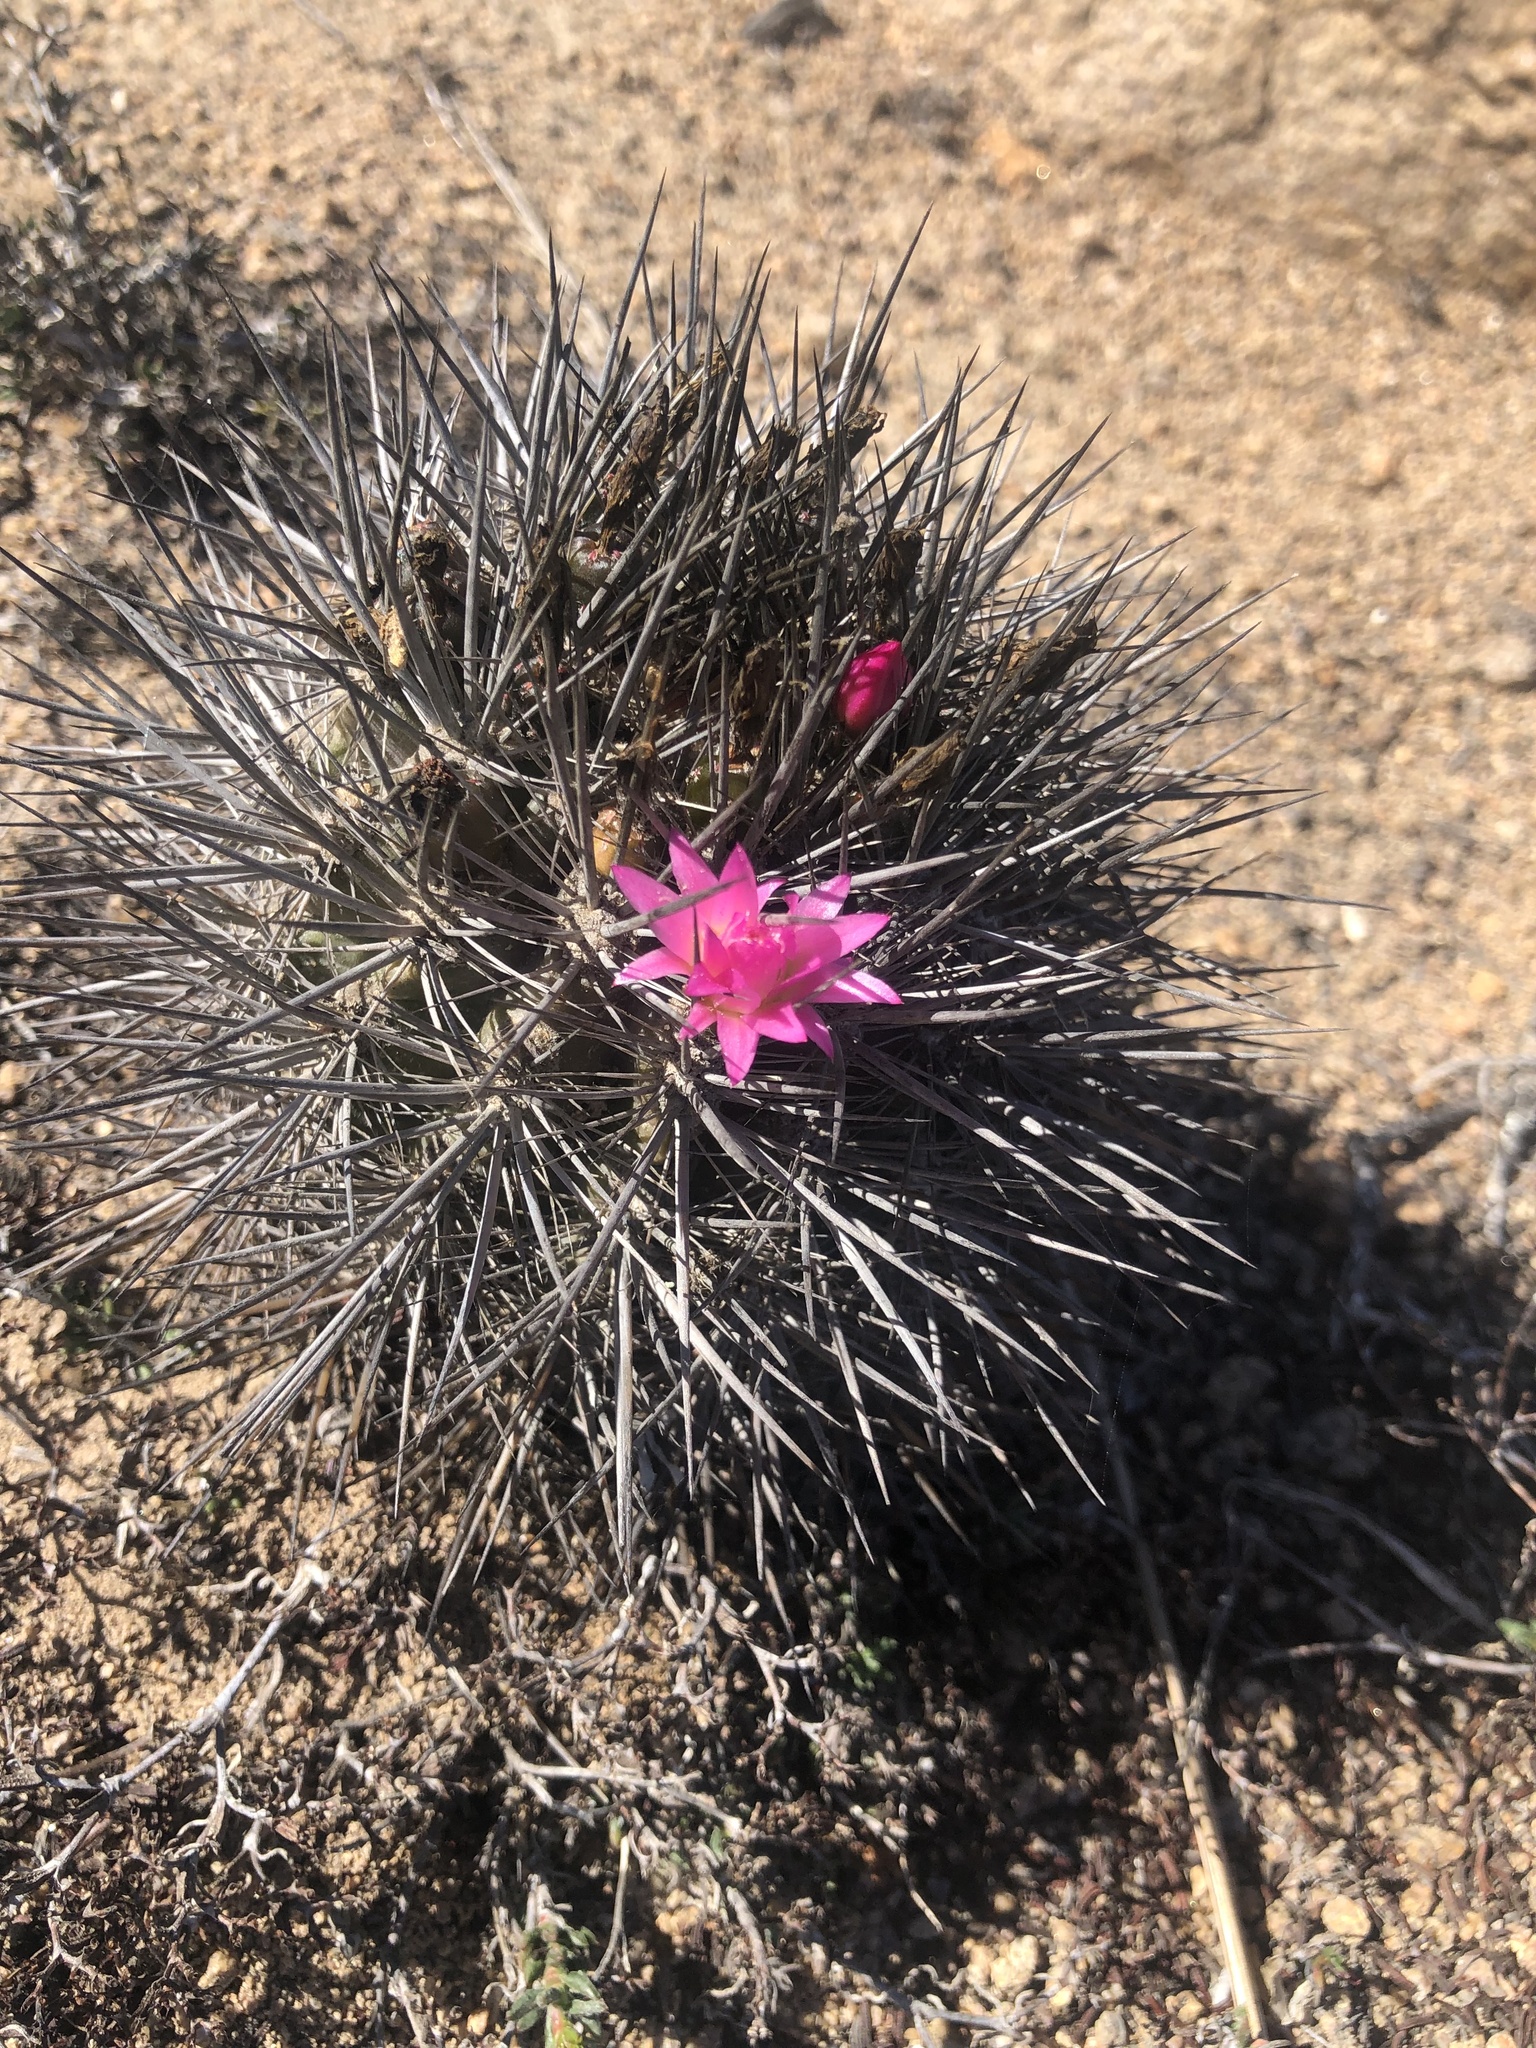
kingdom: Plantae
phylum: Tracheophyta
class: Magnoliopsida
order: Caryophyllales
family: Cactaceae
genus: Eriosyce
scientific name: Eriosyce wagenknechtii
